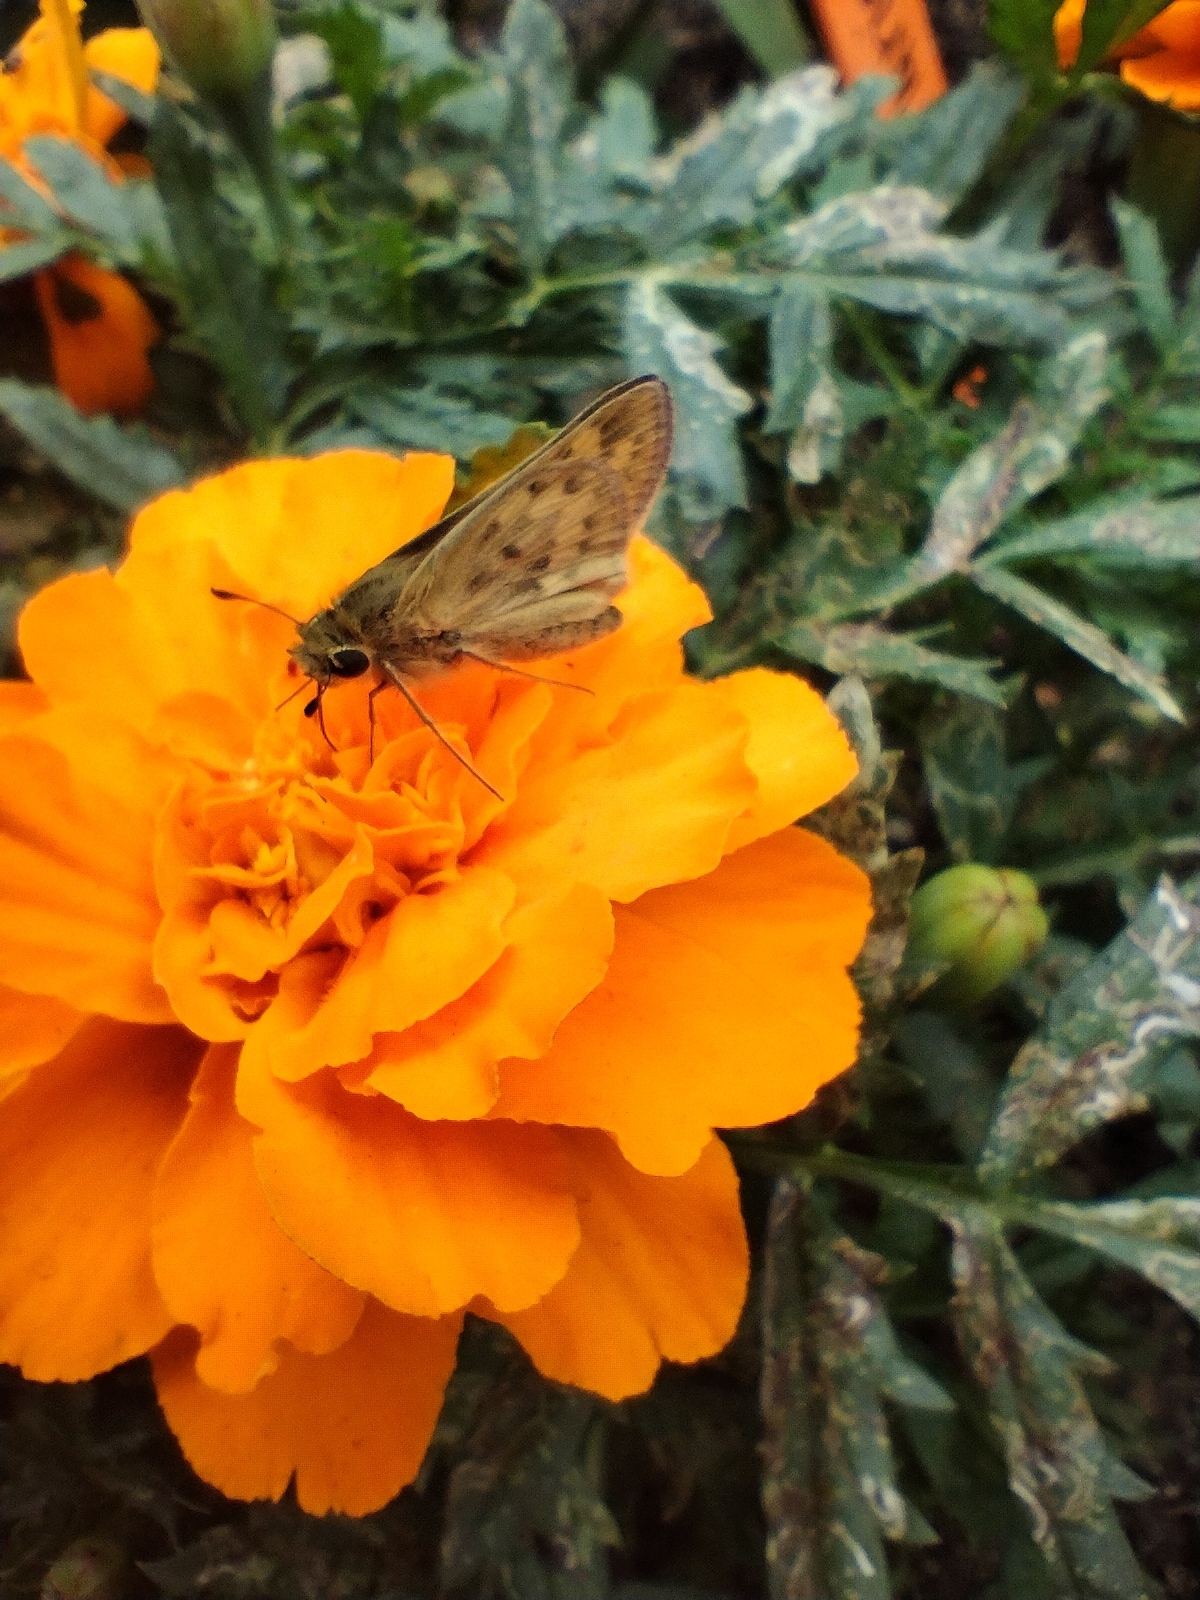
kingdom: Animalia
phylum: Arthropoda
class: Insecta
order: Lepidoptera
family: Hesperiidae
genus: Hylephila
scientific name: Hylephila phyleus
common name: Fiery skipper
